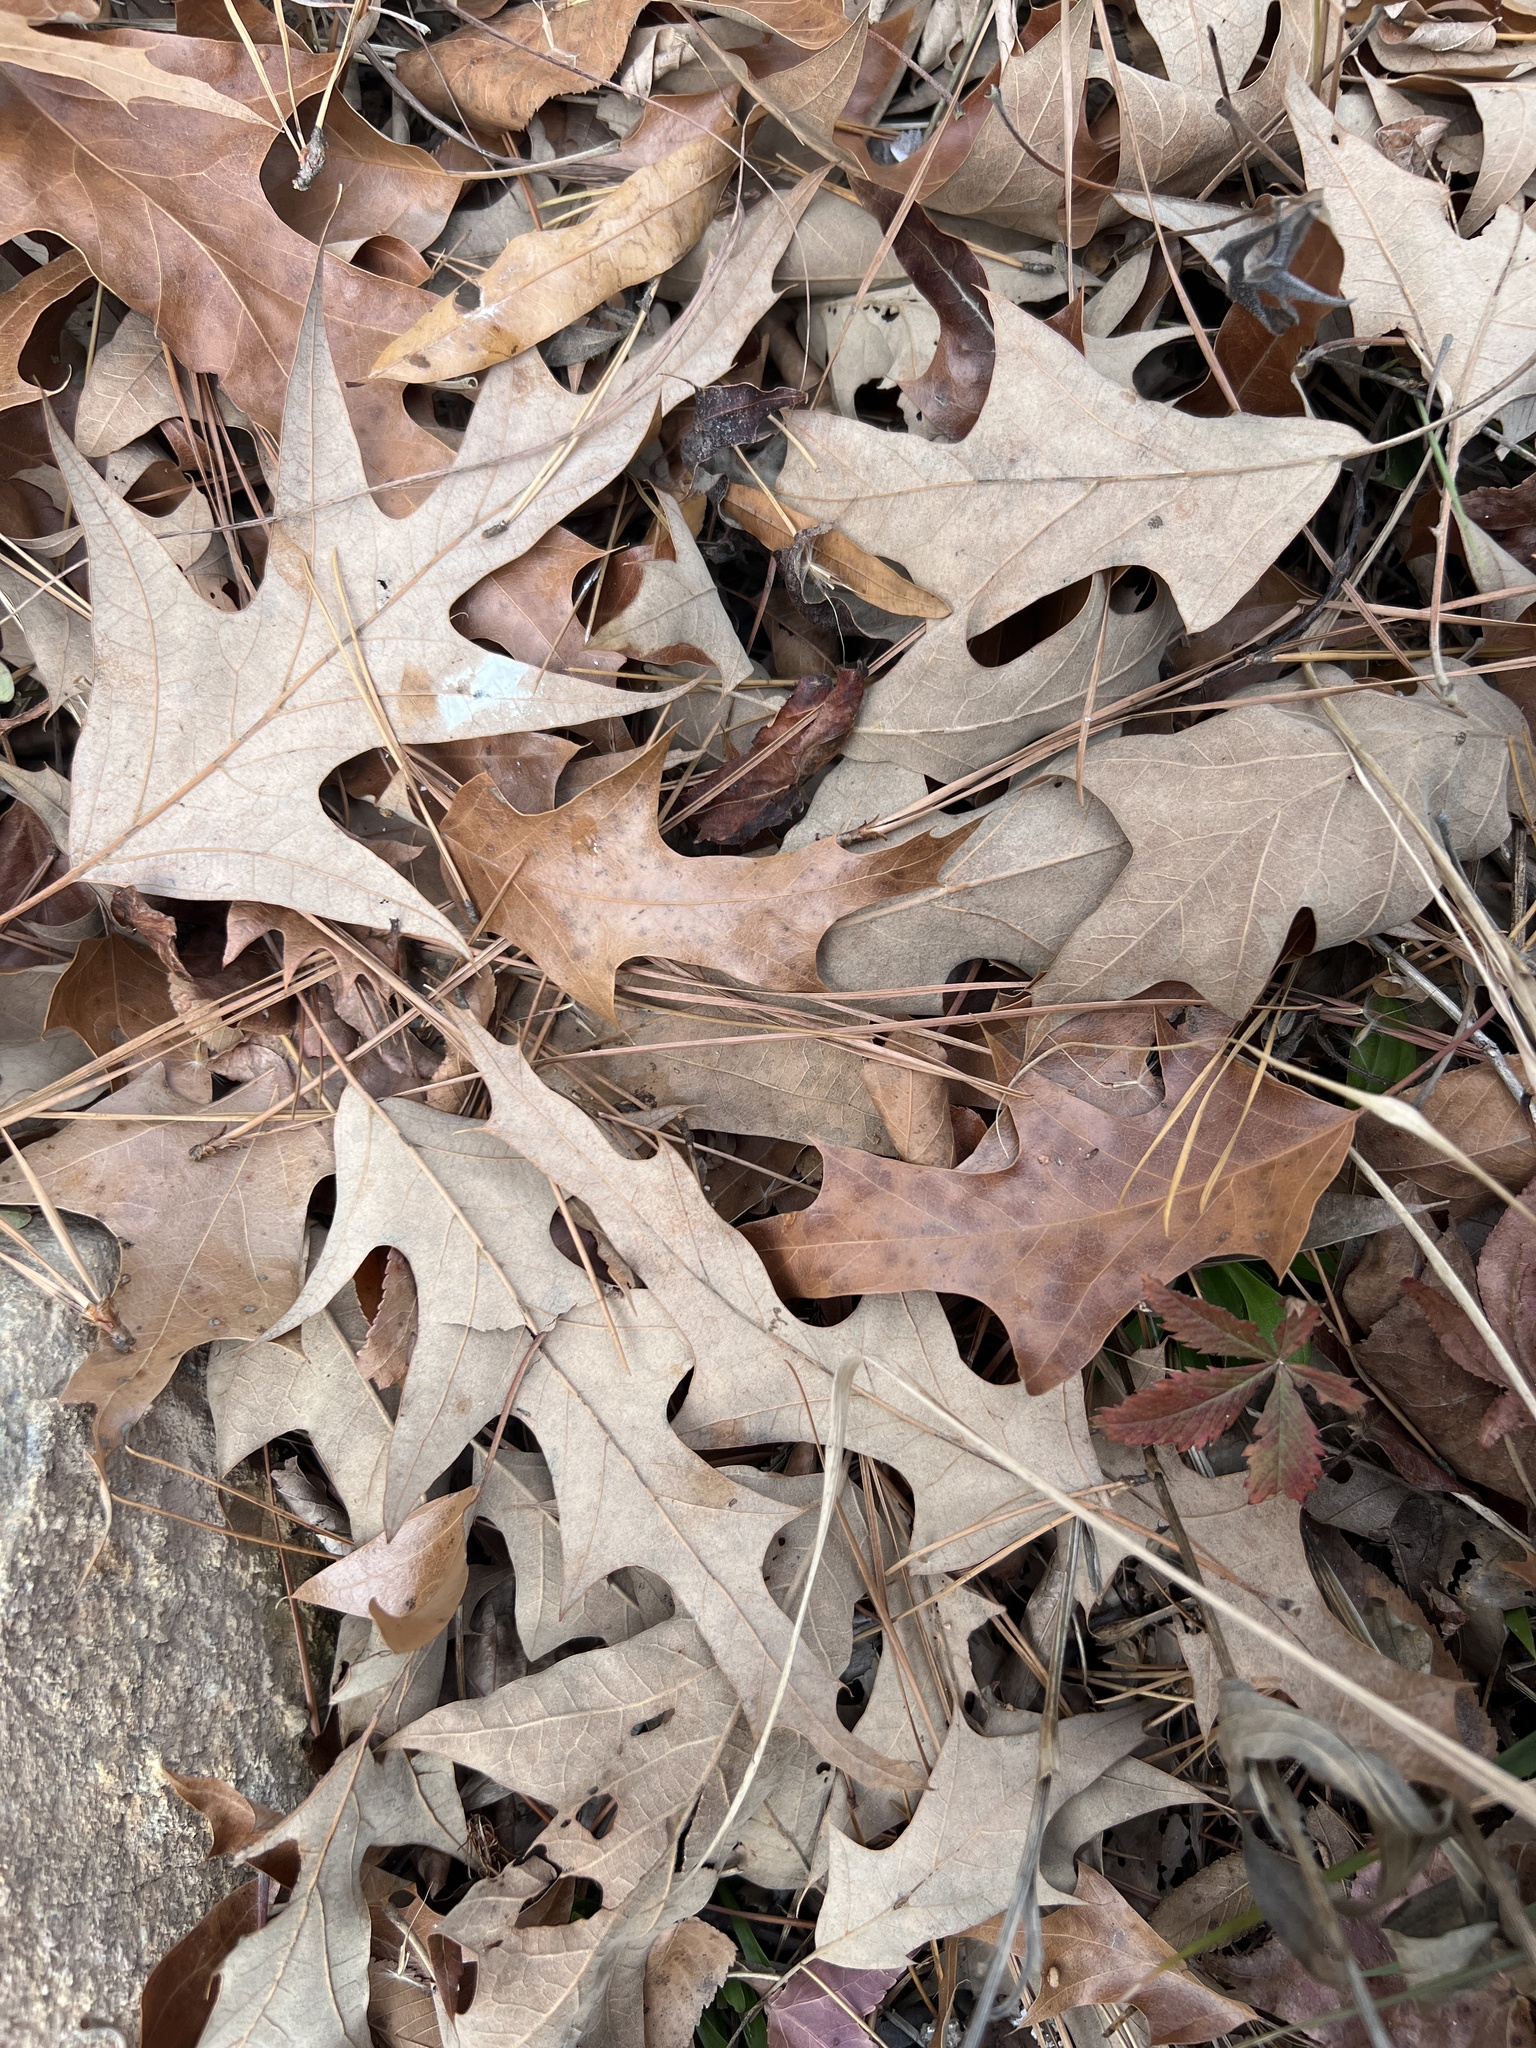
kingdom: Plantae
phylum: Tracheophyta
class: Magnoliopsida
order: Fagales
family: Fagaceae
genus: Quercus
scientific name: Quercus pagoda
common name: Cherrybark oak
